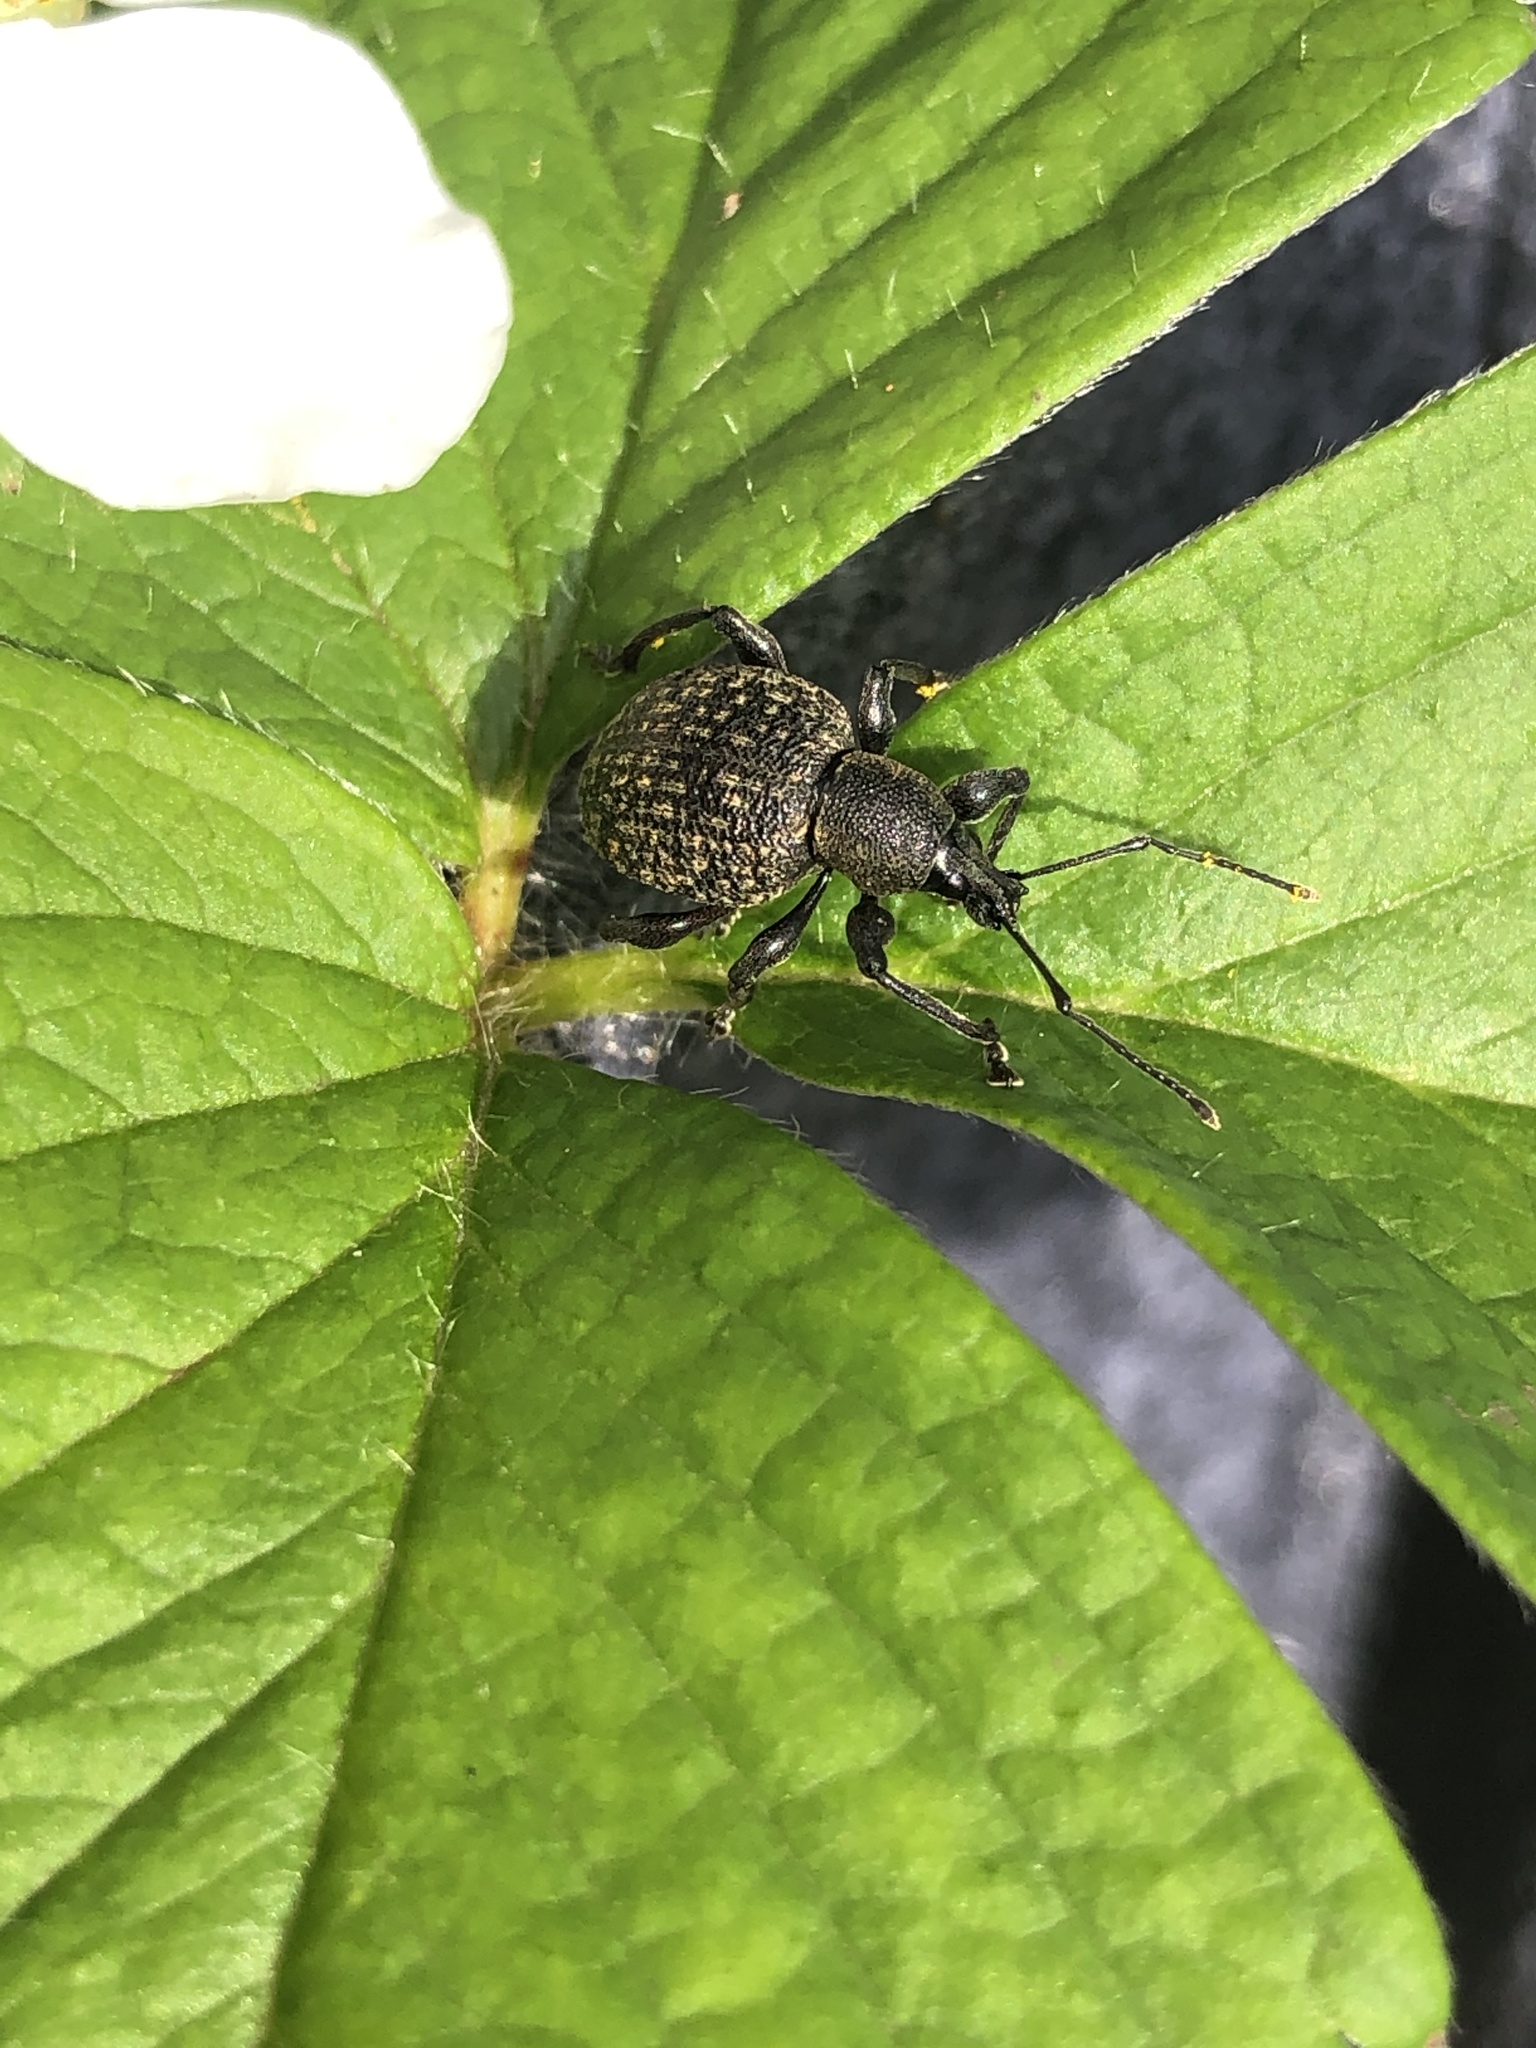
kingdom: Animalia
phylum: Arthropoda
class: Insecta
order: Coleoptera
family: Curculionidae
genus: Otiorhynchus
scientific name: Otiorhynchus armadillo
